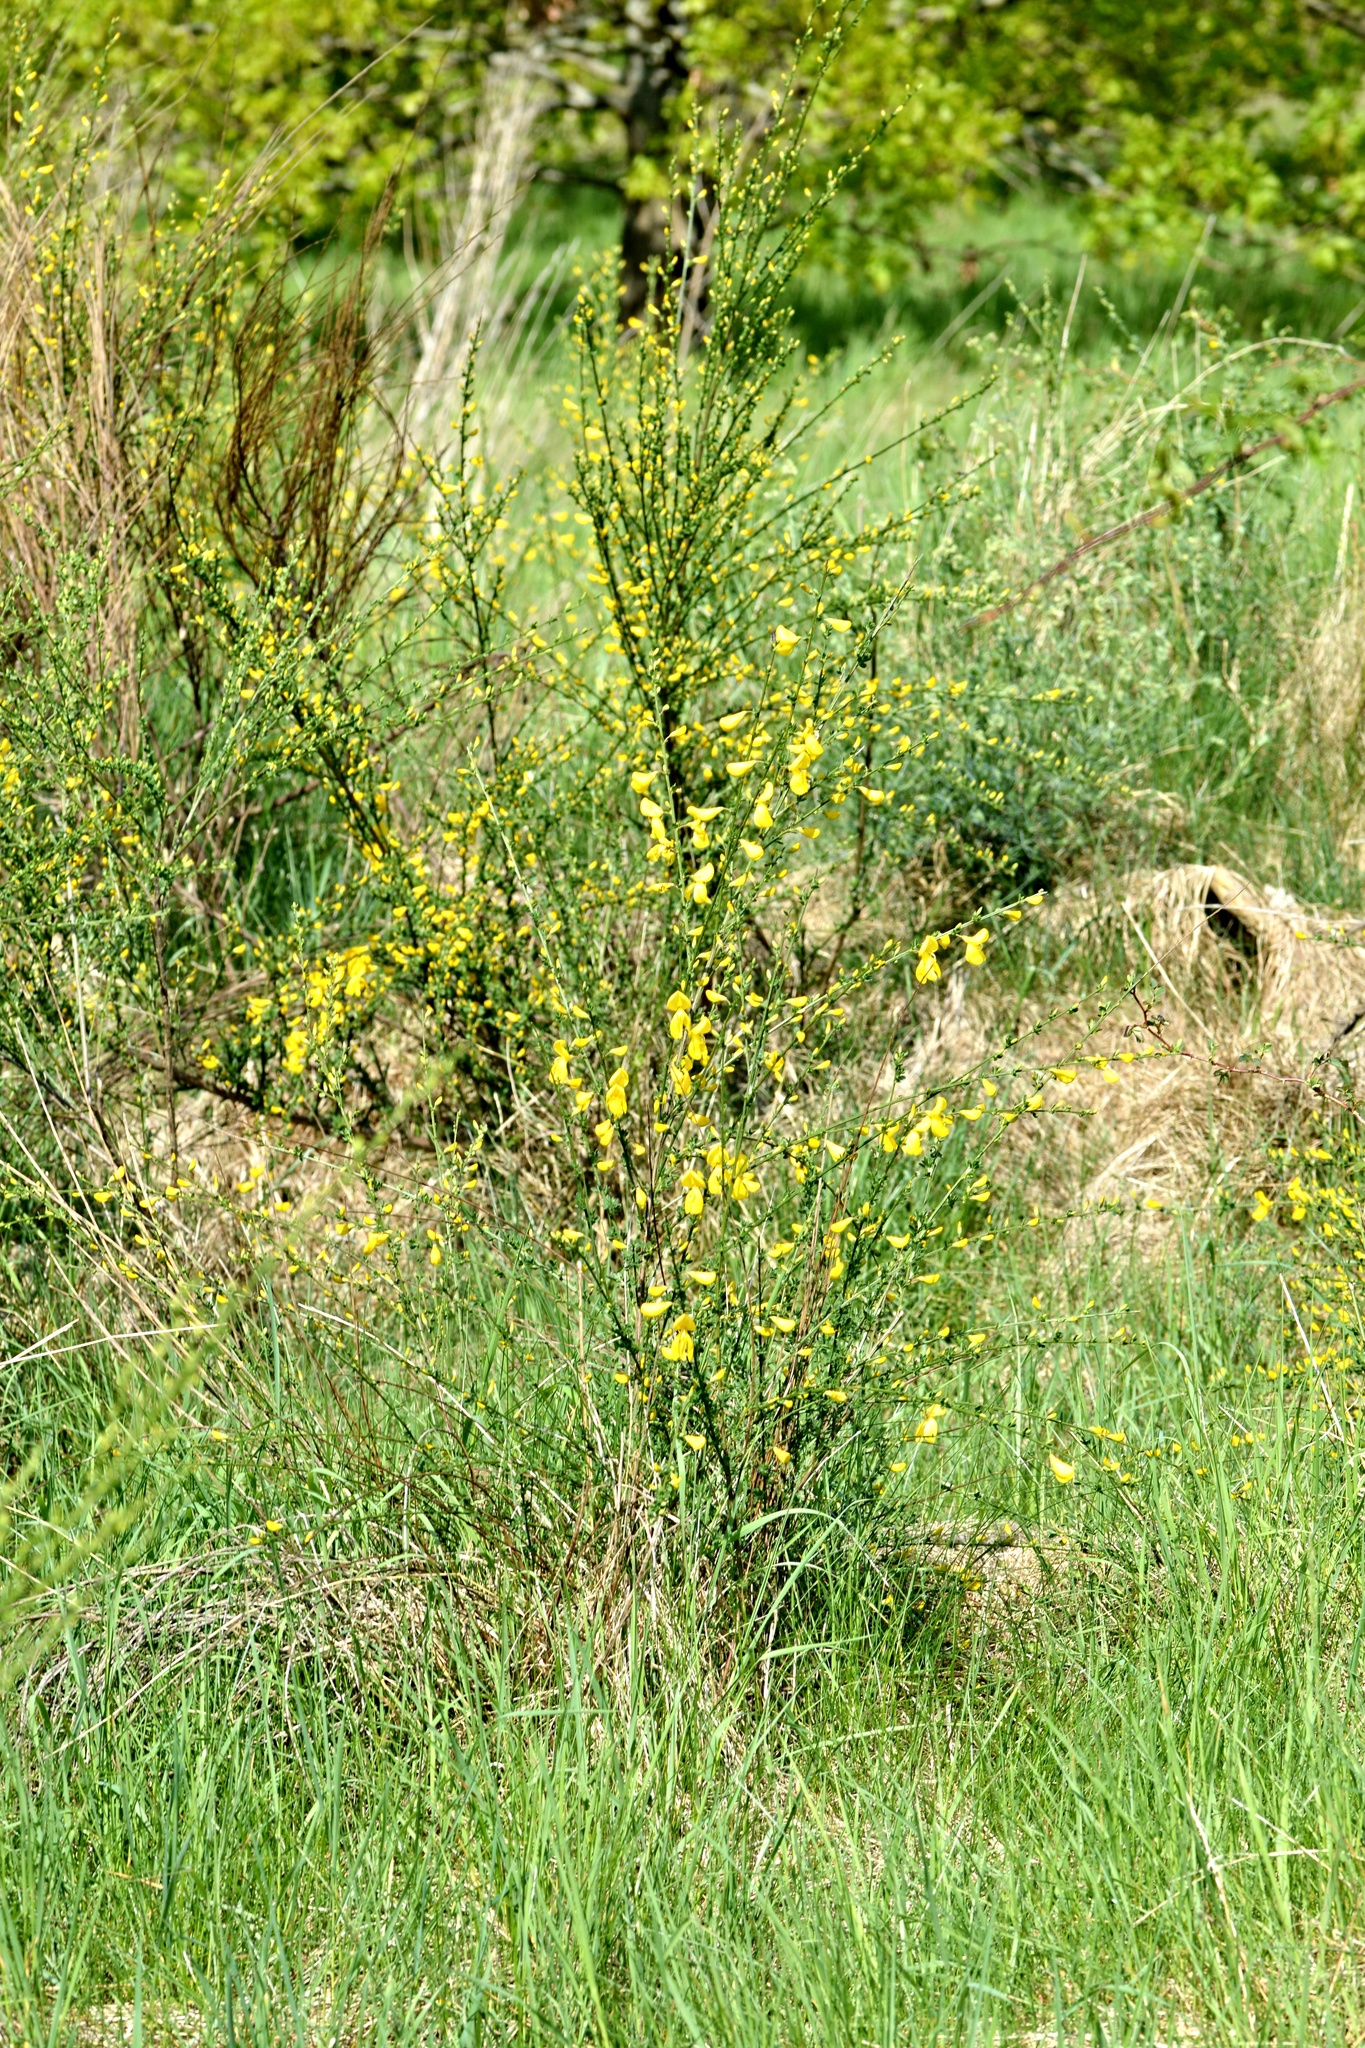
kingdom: Plantae
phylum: Tracheophyta
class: Magnoliopsida
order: Fabales
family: Fabaceae
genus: Cytisus
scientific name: Cytisus scoparius
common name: Scotch broom
